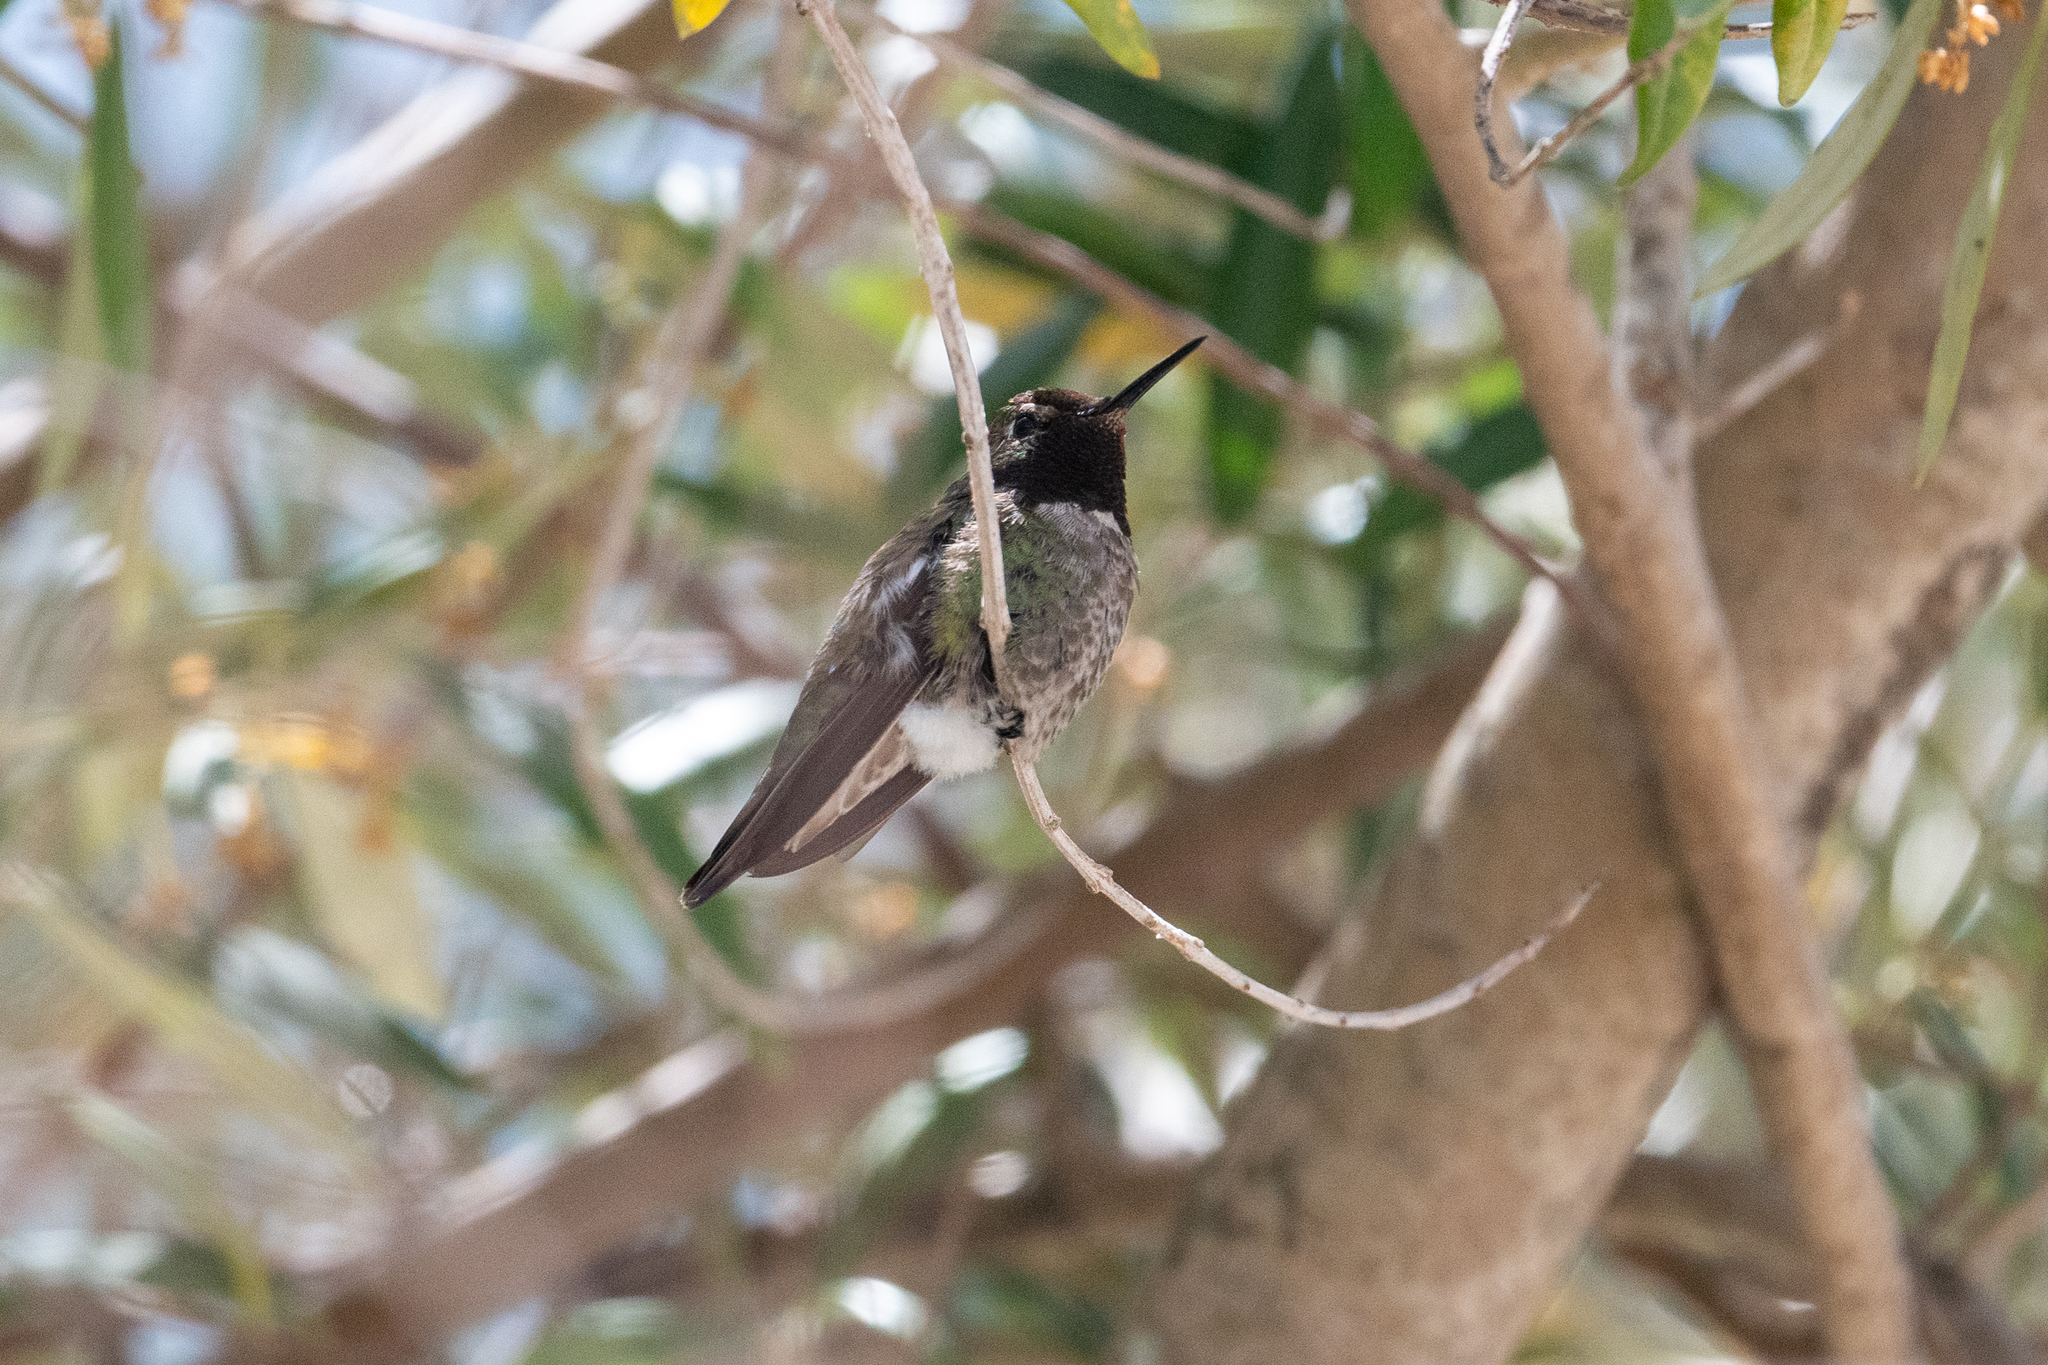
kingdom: Animalia
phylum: Chordata
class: Aves
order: Apodiformes
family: Trochilidae
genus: Calypte
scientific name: Calypte anna
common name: Anna's hummingbird
